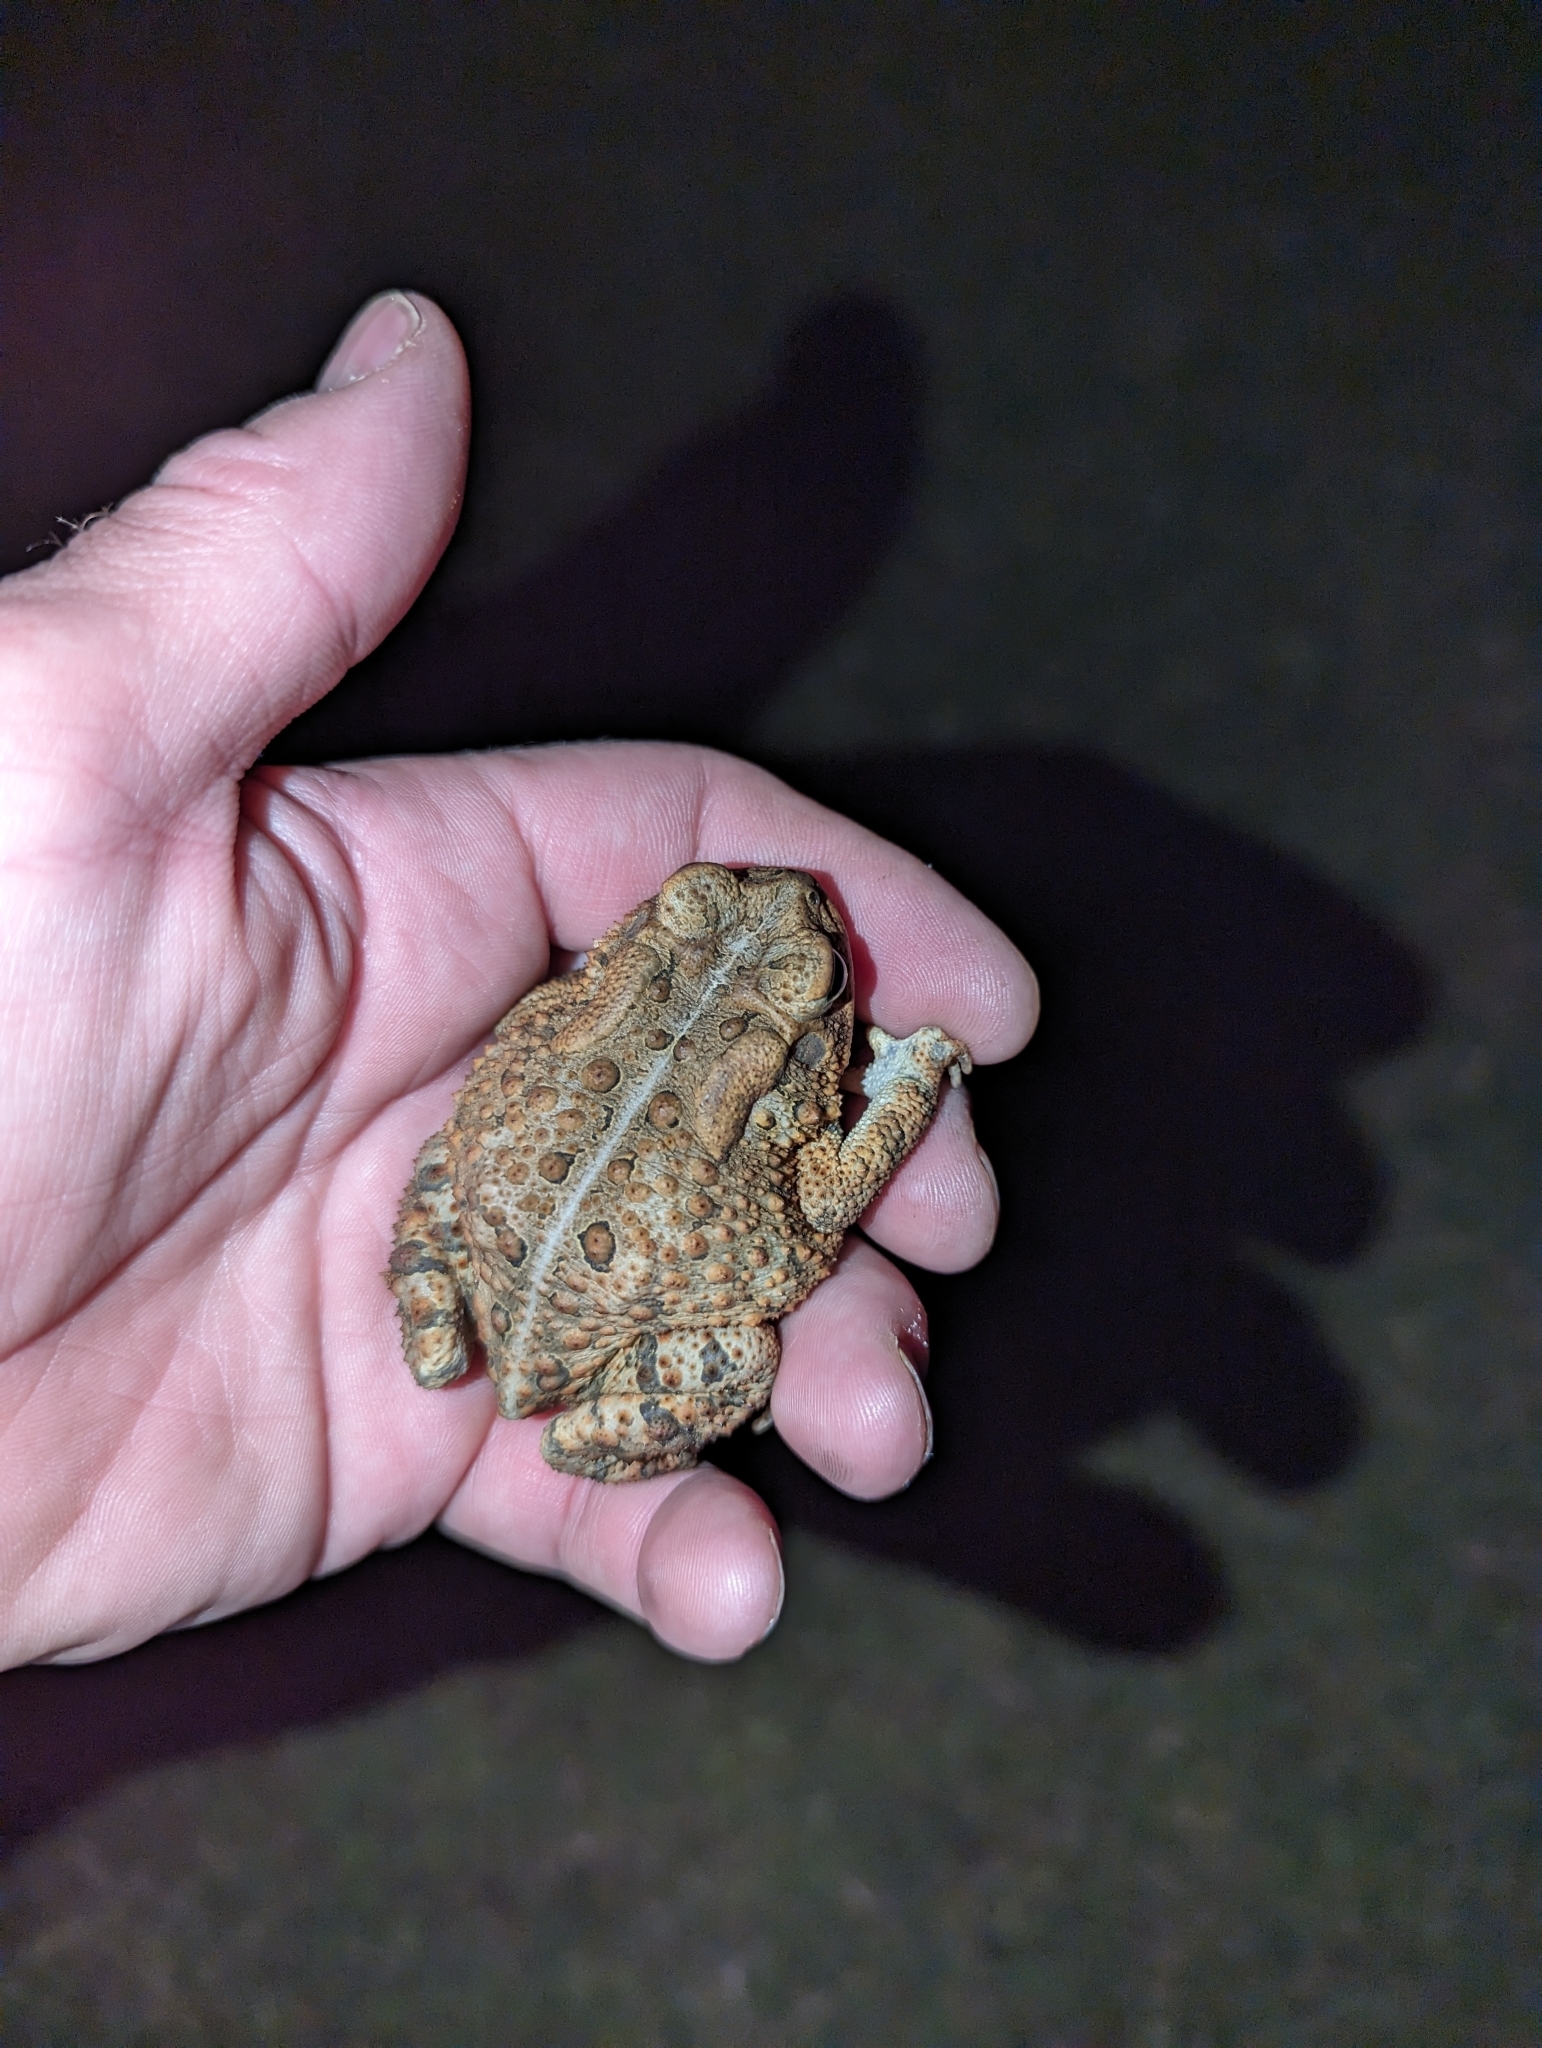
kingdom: Animalia
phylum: Chordata
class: Amphibia
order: Anura
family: Bufonidae
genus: Anaxyrus
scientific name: Anaxyrus americanus
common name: American toad
